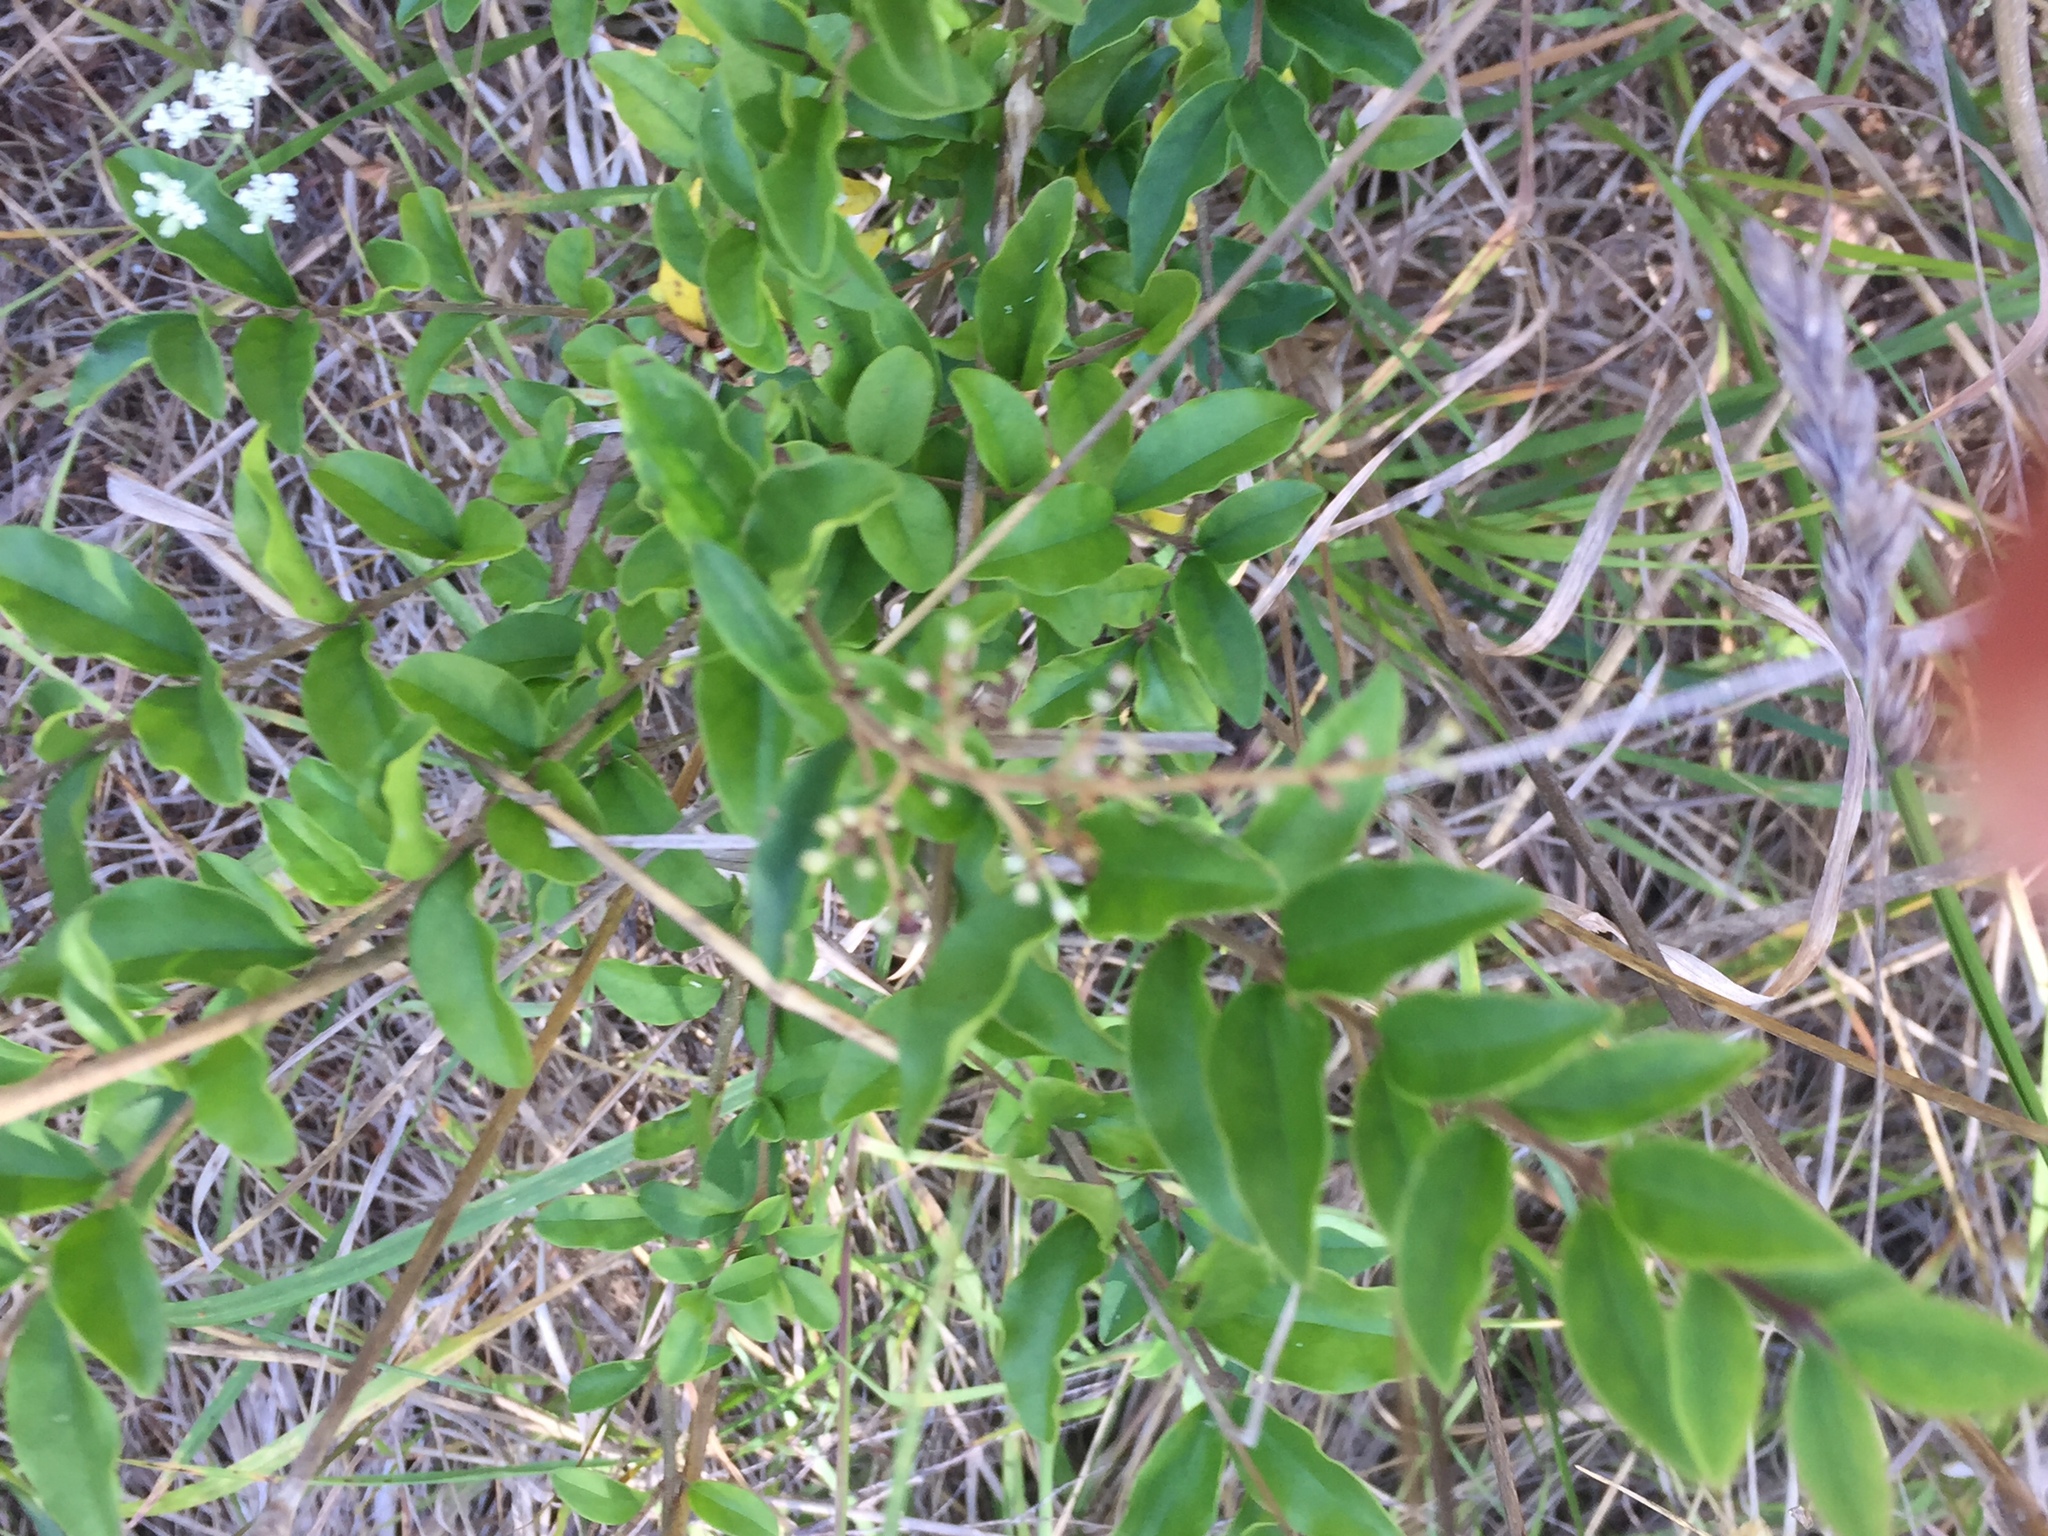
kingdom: Plantae
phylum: Tracheophyta
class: Magnoliopsida
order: Lamiales
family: Oleaceae
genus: Ligustrum
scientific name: Ligustrum sinense
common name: Chinese privet
